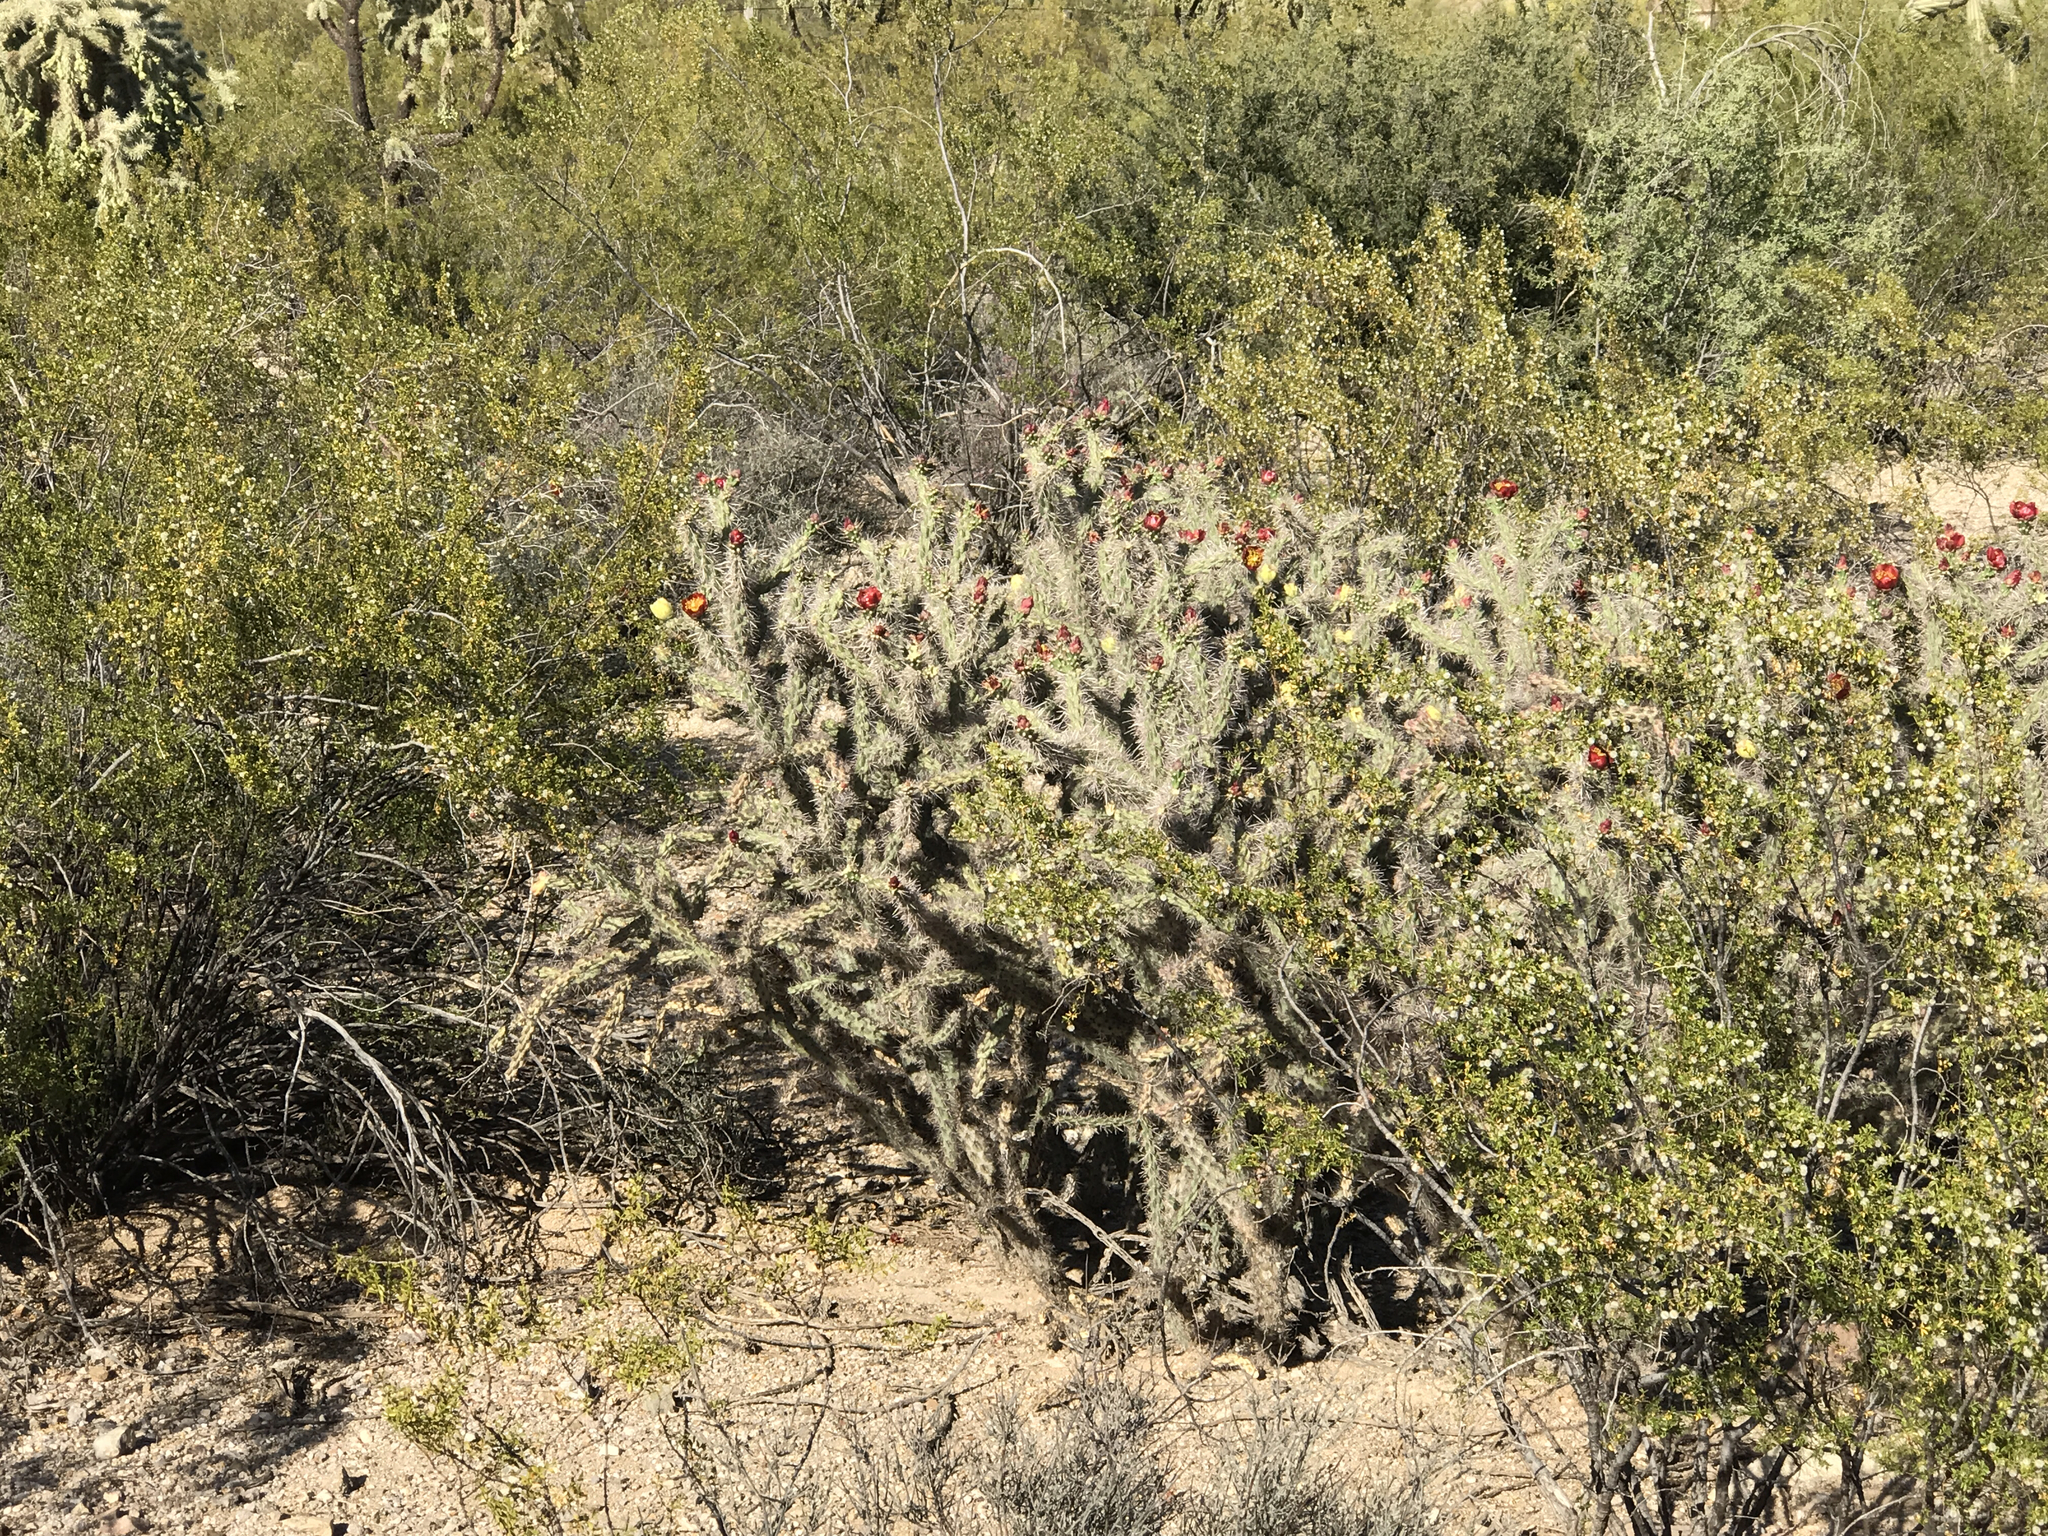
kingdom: Plantae
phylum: Tracheophyta
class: Magnoliopsida
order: Caryophyllales
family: Cactaceae
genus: Cylindropuntia
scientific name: Cylindropuntia thurberi
